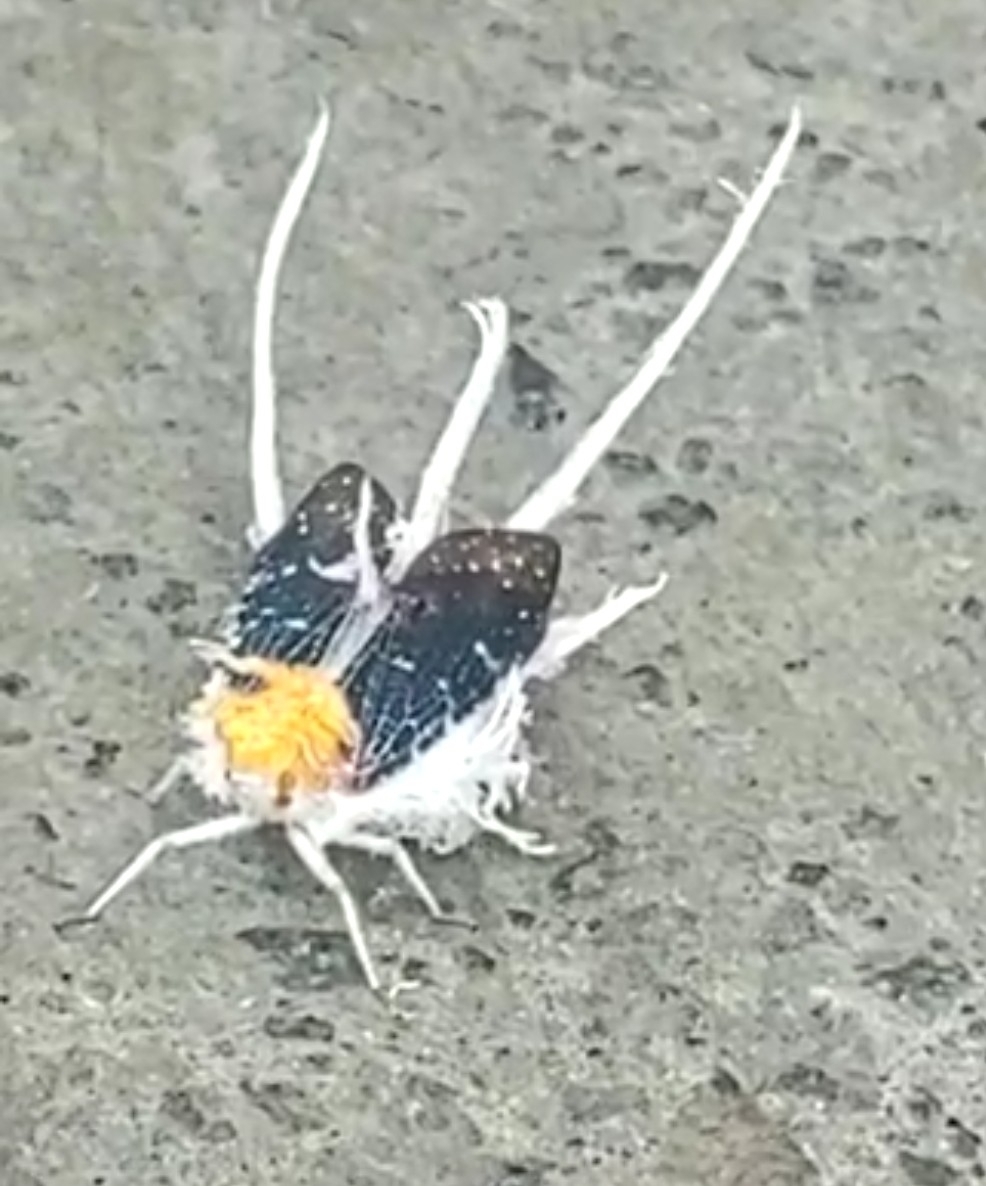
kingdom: Animalia
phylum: Arthropoda
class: Insecta
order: Hemiptera
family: Fulgoridae
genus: Cerogenes
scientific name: Cerogenes auricoma
